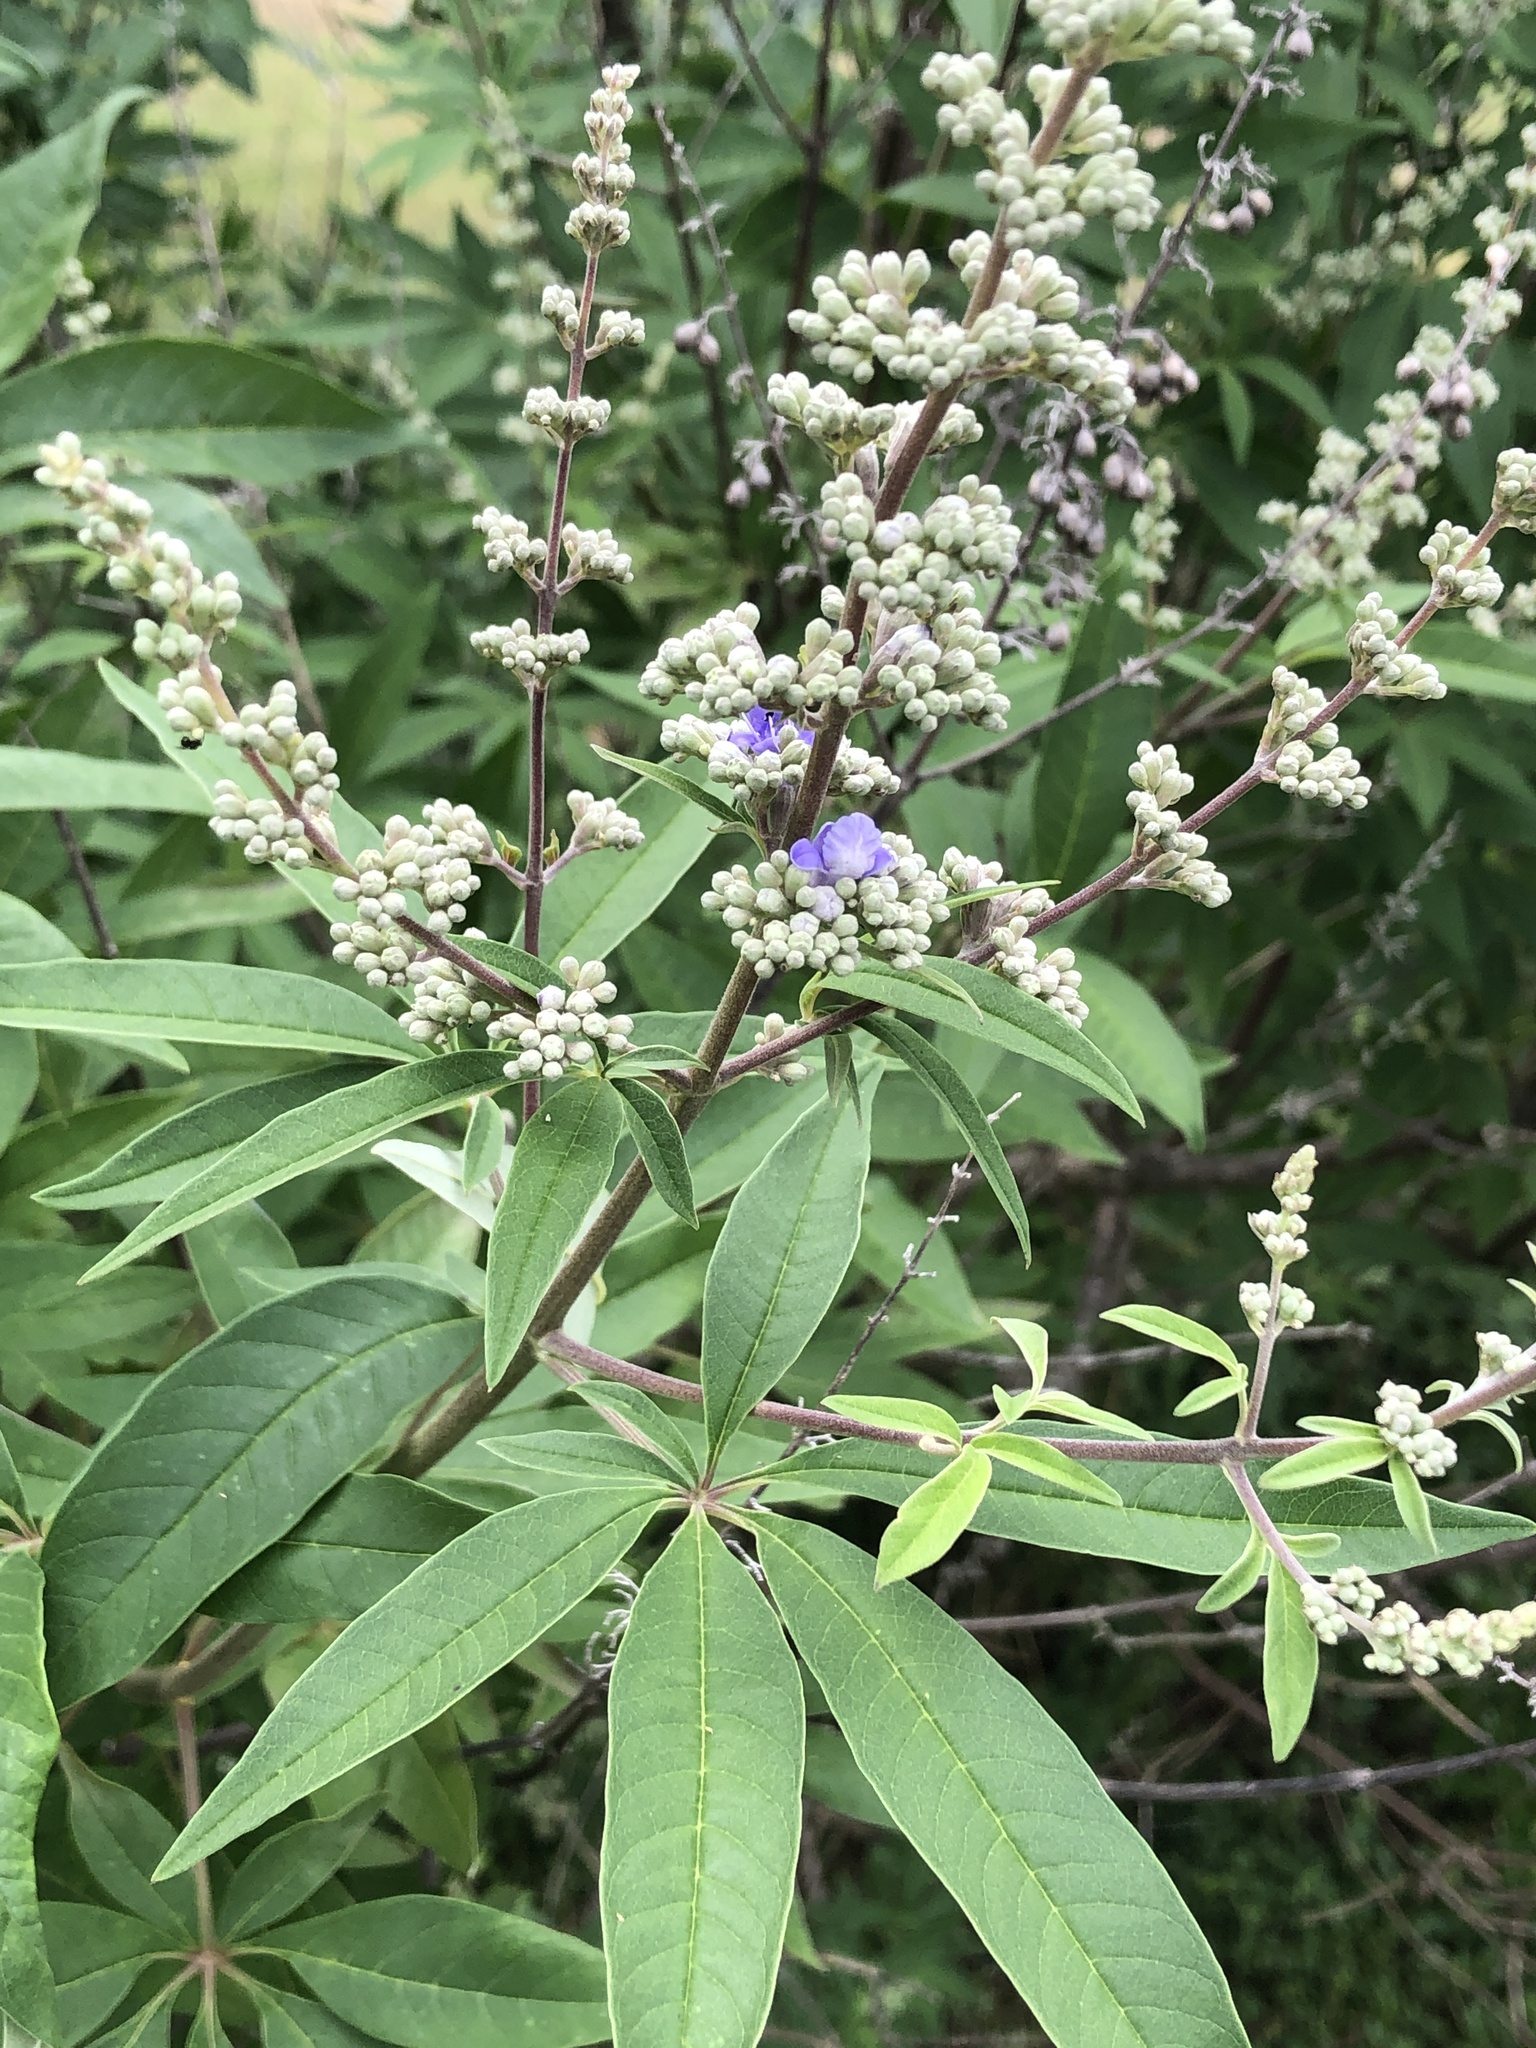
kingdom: Plantae
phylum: Tracheophyta
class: Magnoliopsida
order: Lamiales
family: Lamiaceae
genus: Vitex
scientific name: Vitex agnus-castus
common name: Chasteberry
